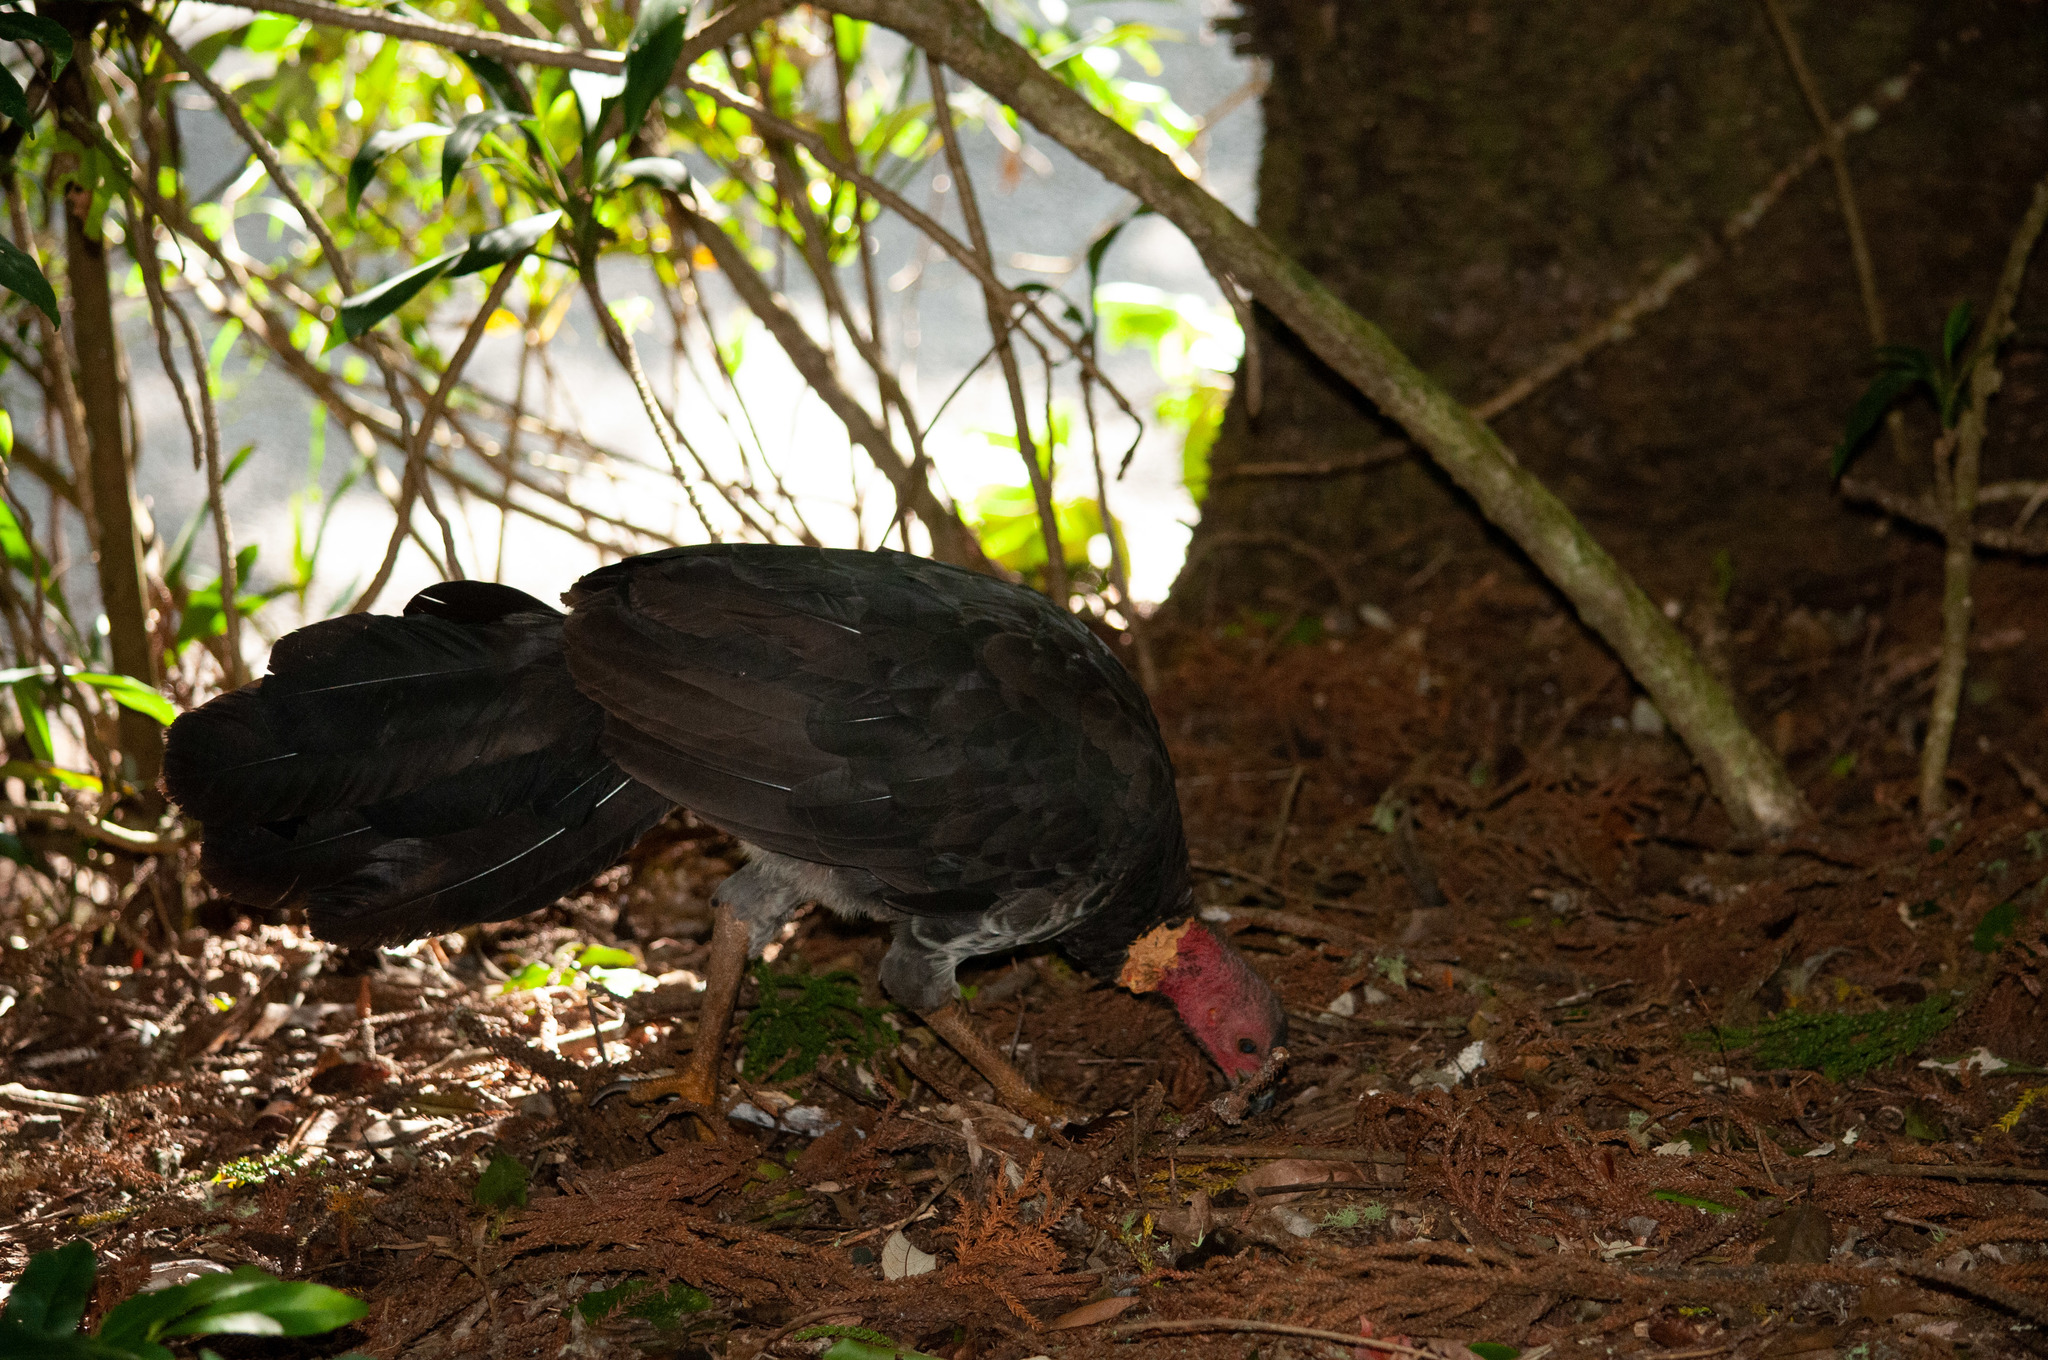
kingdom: Animalia
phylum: Chordata
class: Aves
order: Galliformes
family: Megapodiidae
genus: Alectura
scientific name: Alectura lathami
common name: Australian brushturkey
